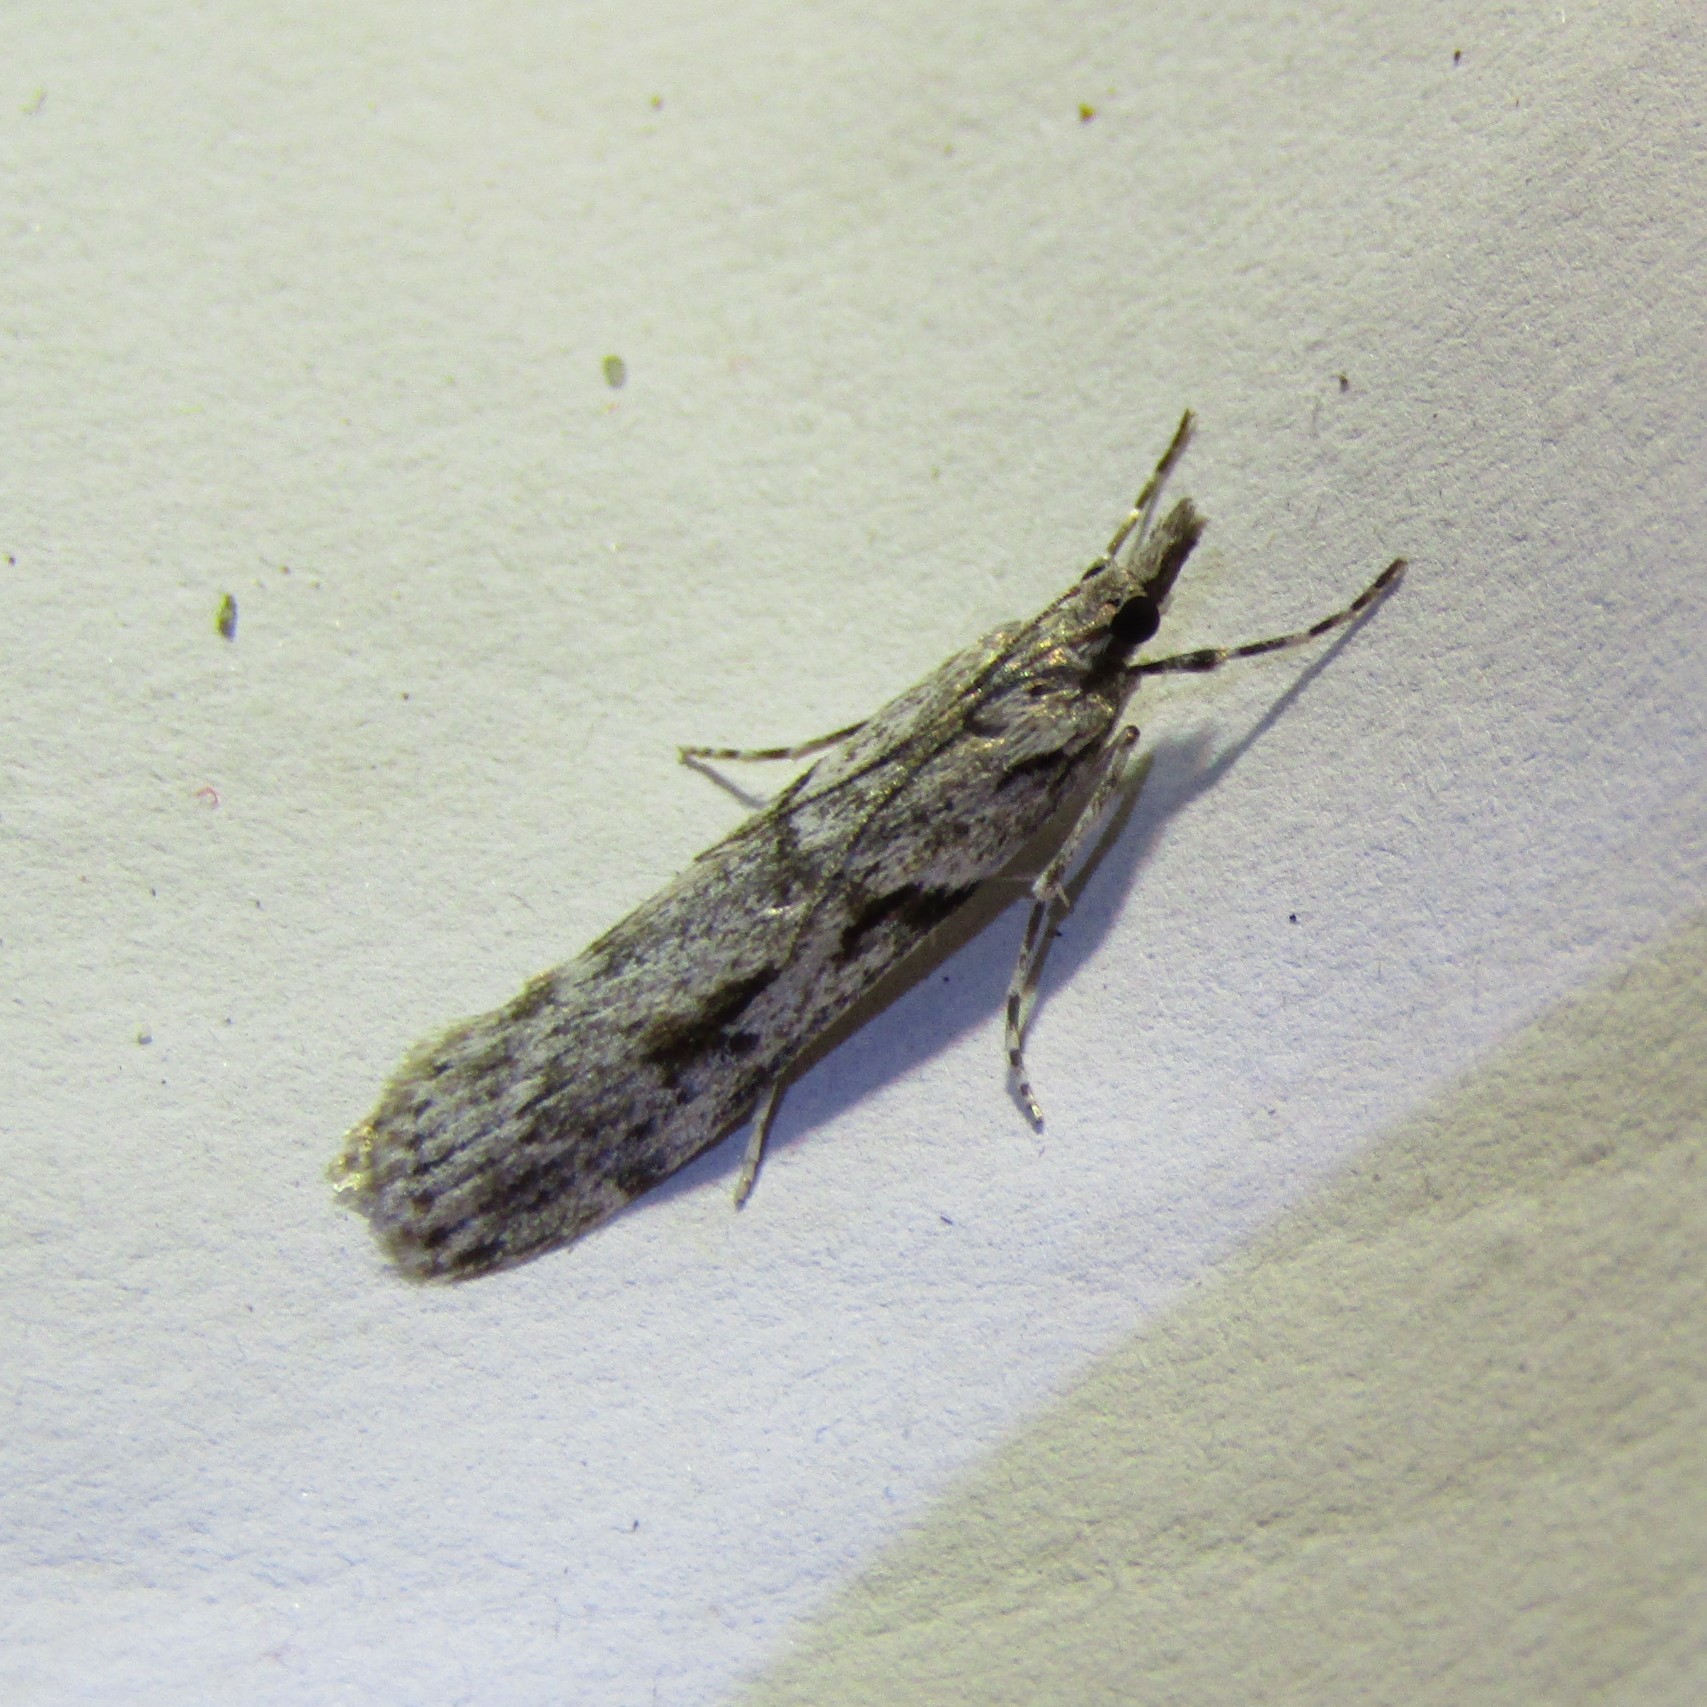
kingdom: Animalia
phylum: Arthropoda
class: Insecta
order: Lepidoptera
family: Crambidae
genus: Scoparia
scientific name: Scoparia halopis
